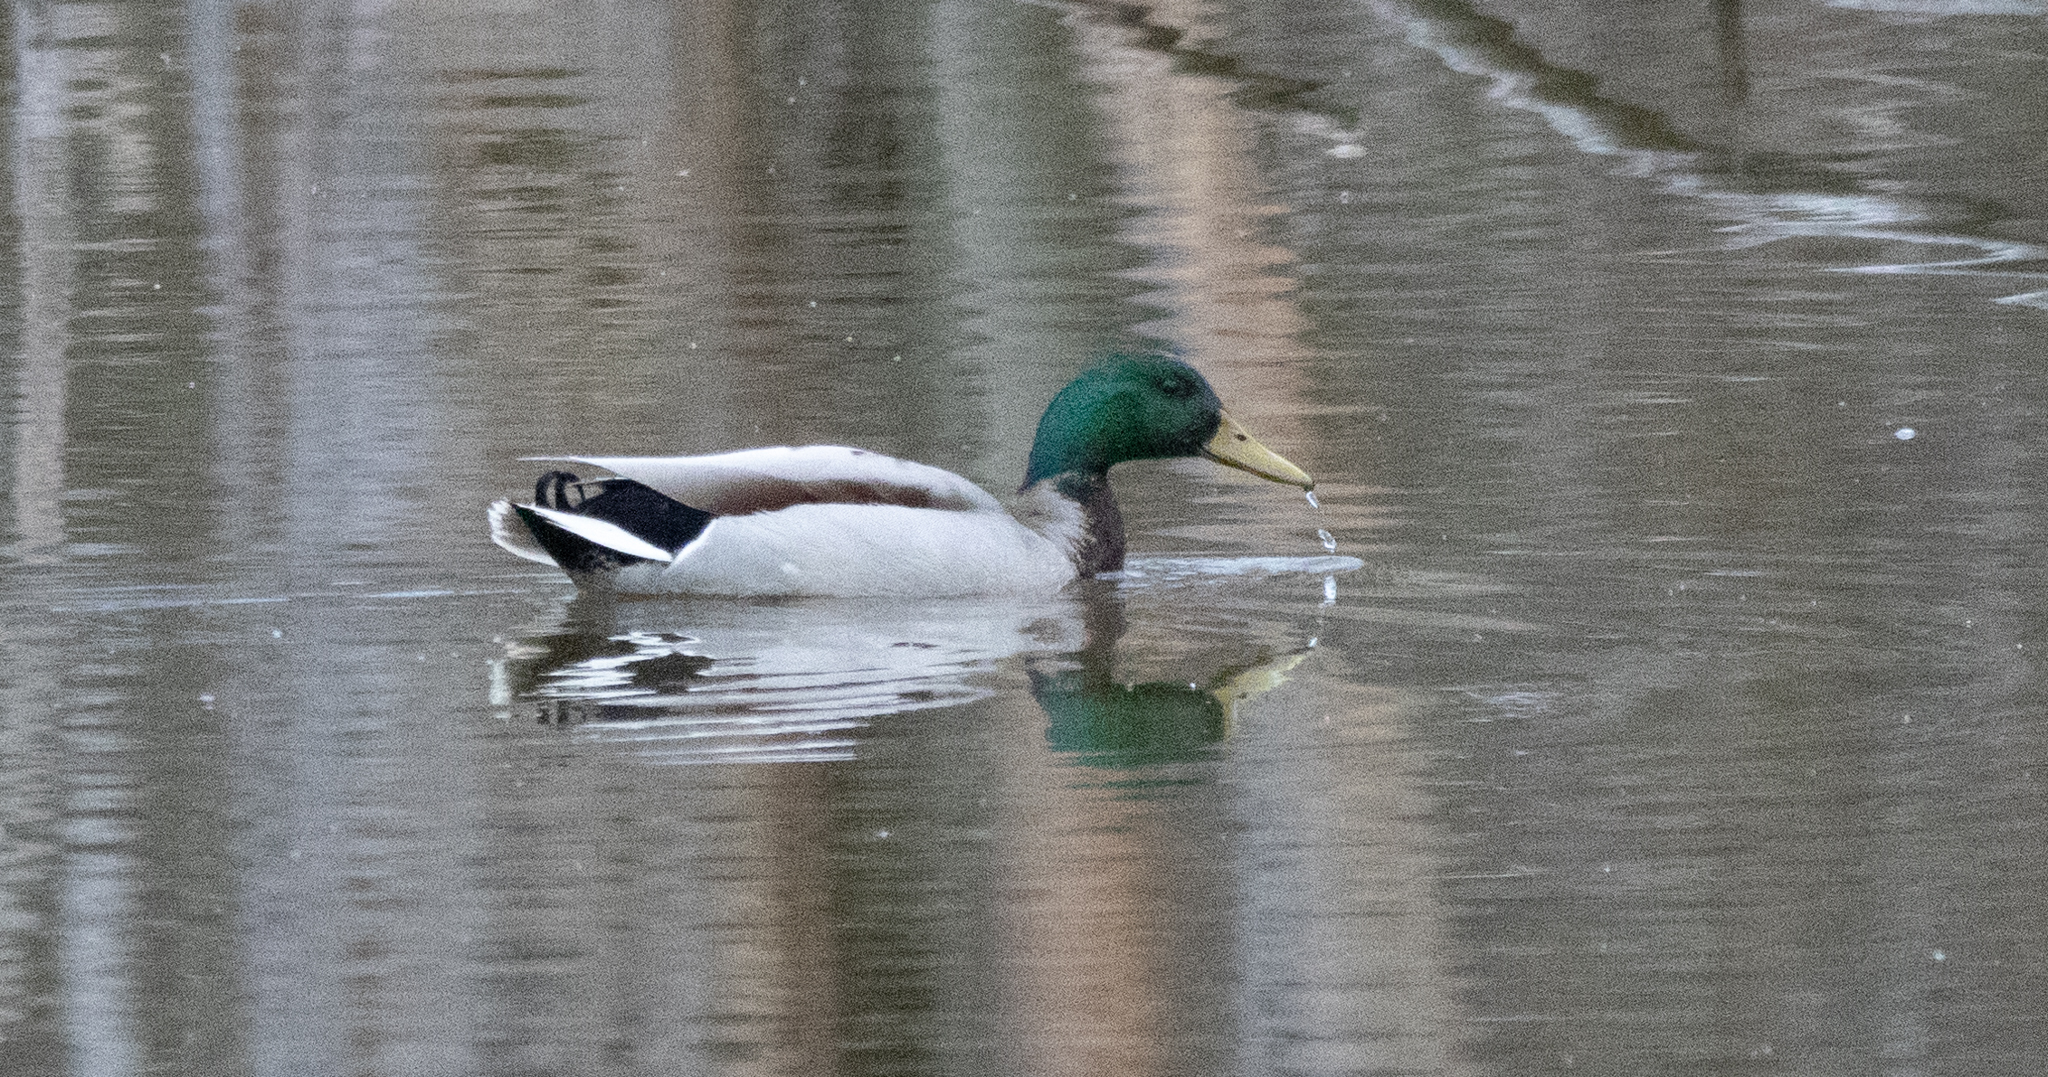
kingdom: Animalia
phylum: Chordata
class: Aves
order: Anseriformes
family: Anatidae
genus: Anas
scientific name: Anas platyrhynchos
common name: Mallard
